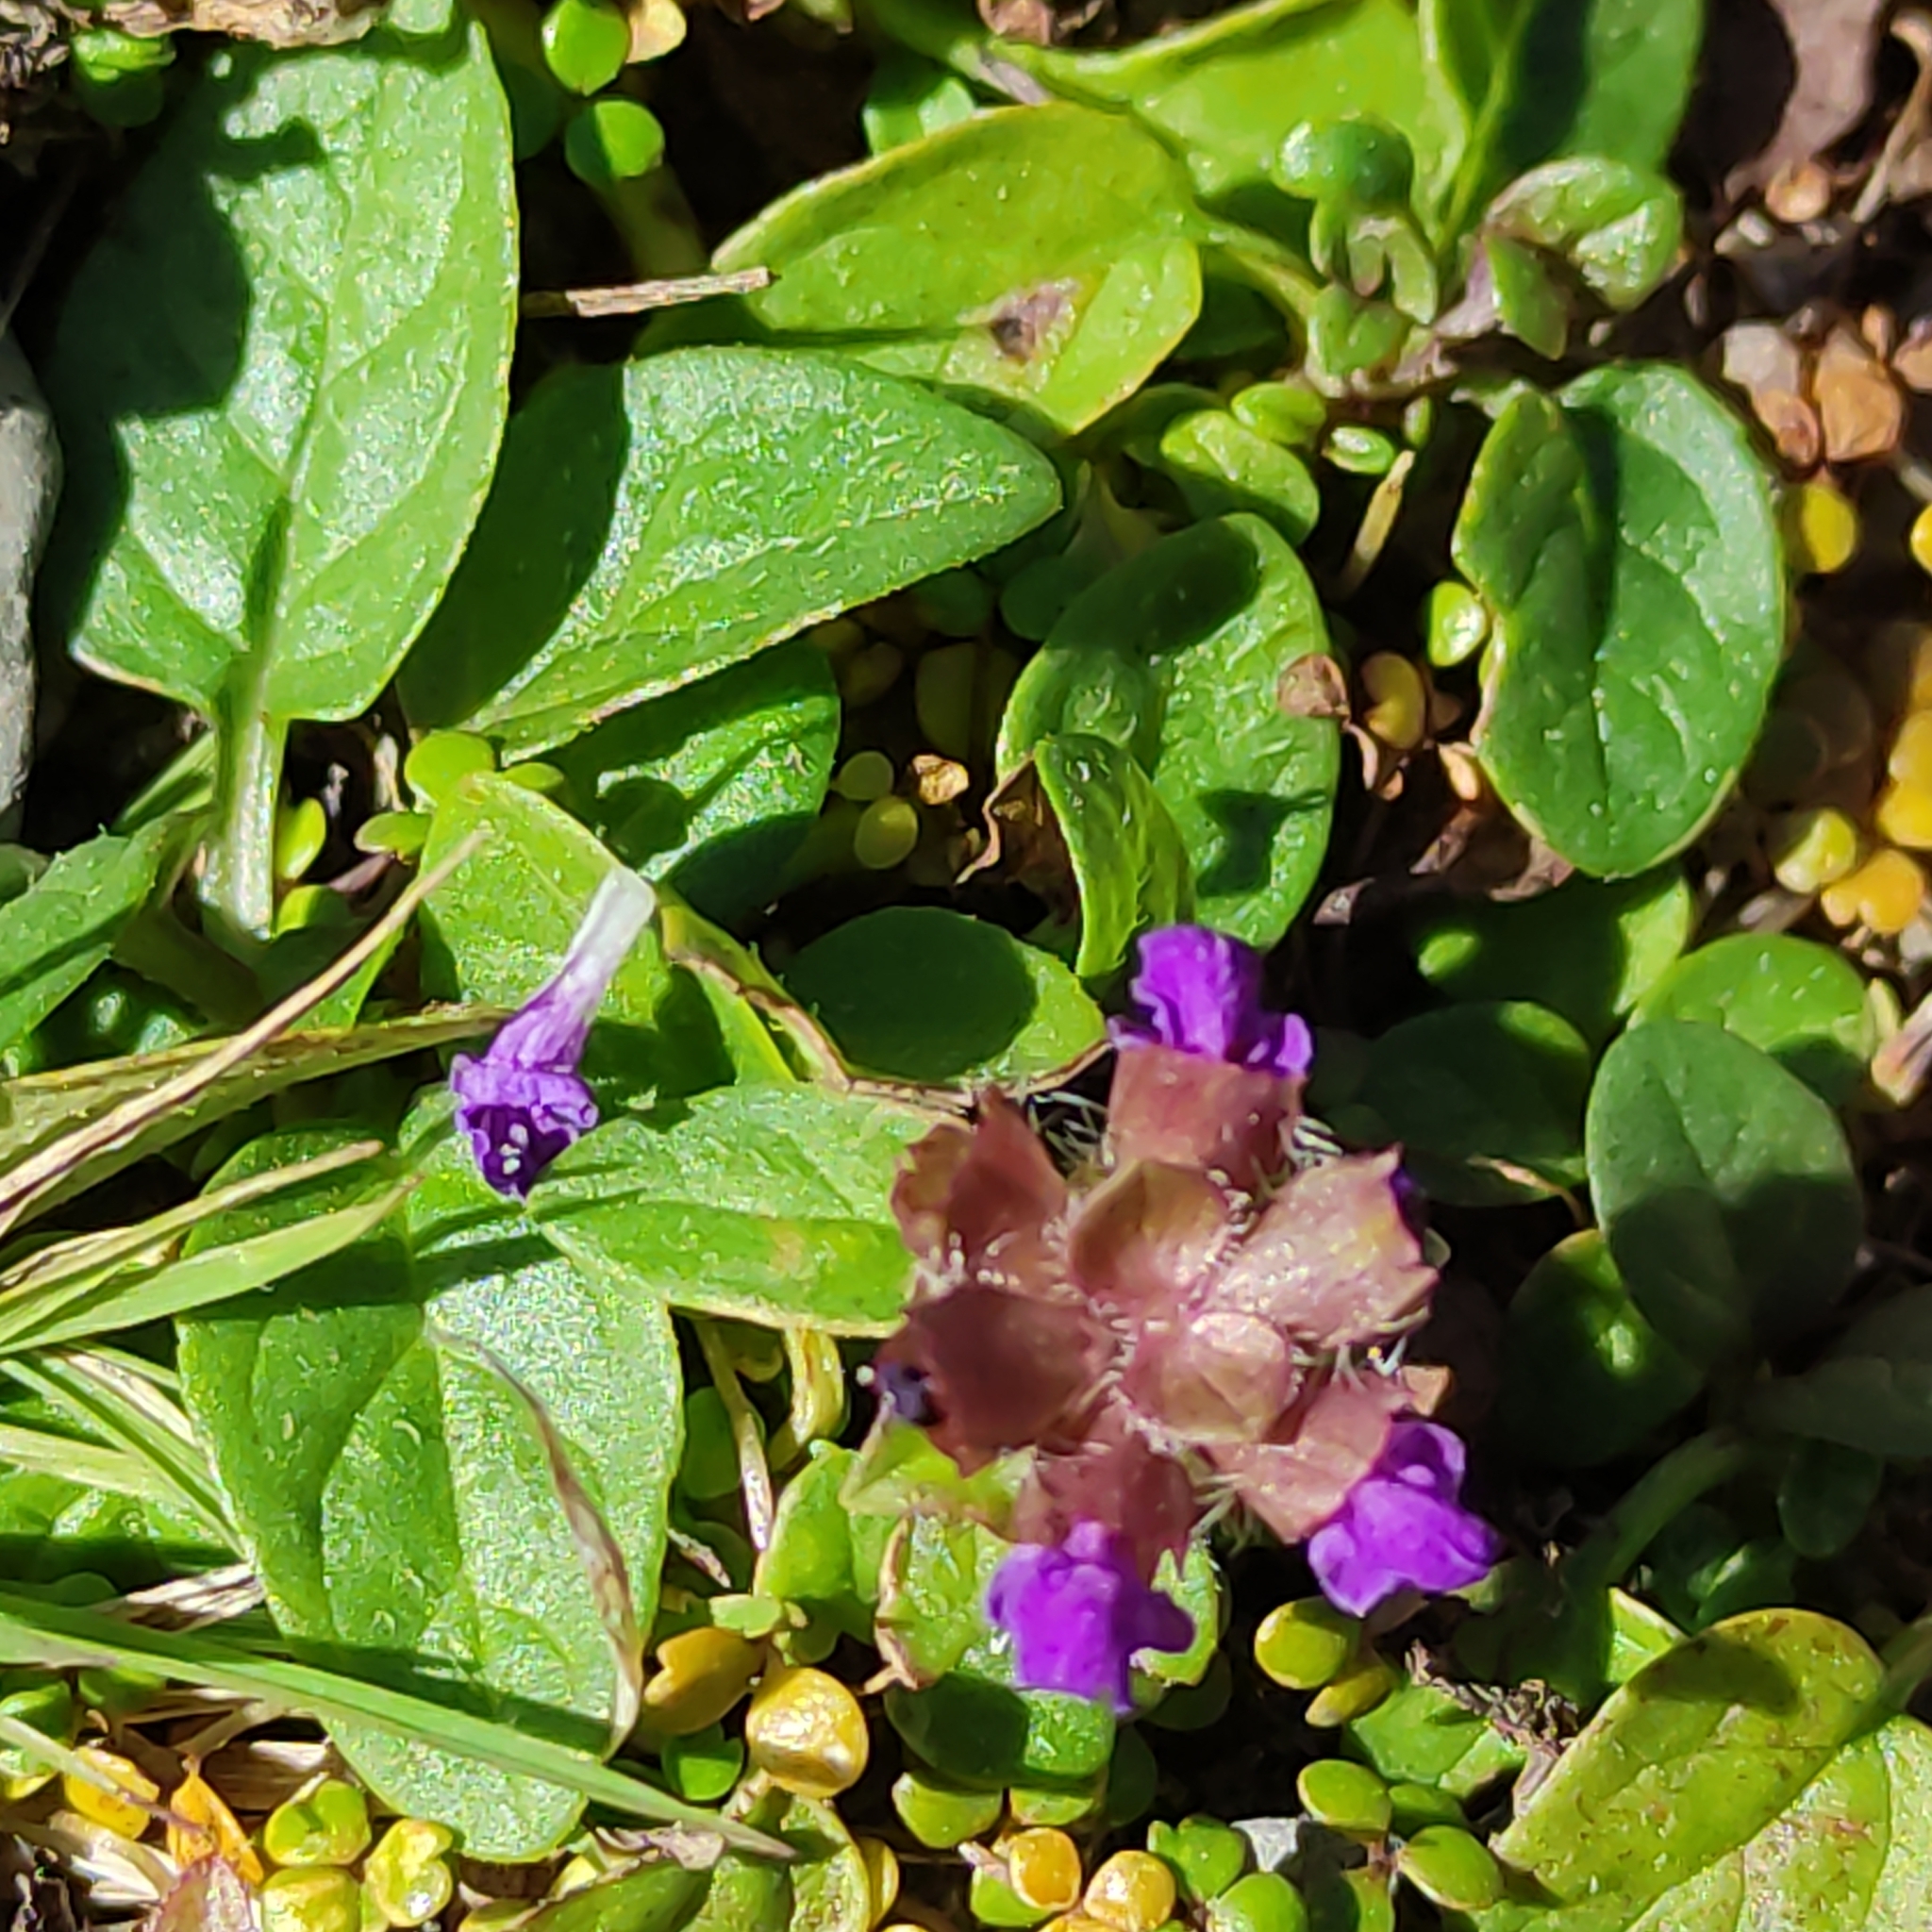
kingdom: Plantae
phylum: Tracheophyta
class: Magnoliopsida
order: Lamiales
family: Lamiaceae
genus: Prunella
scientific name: Prunella vulgaris
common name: Heal-all
